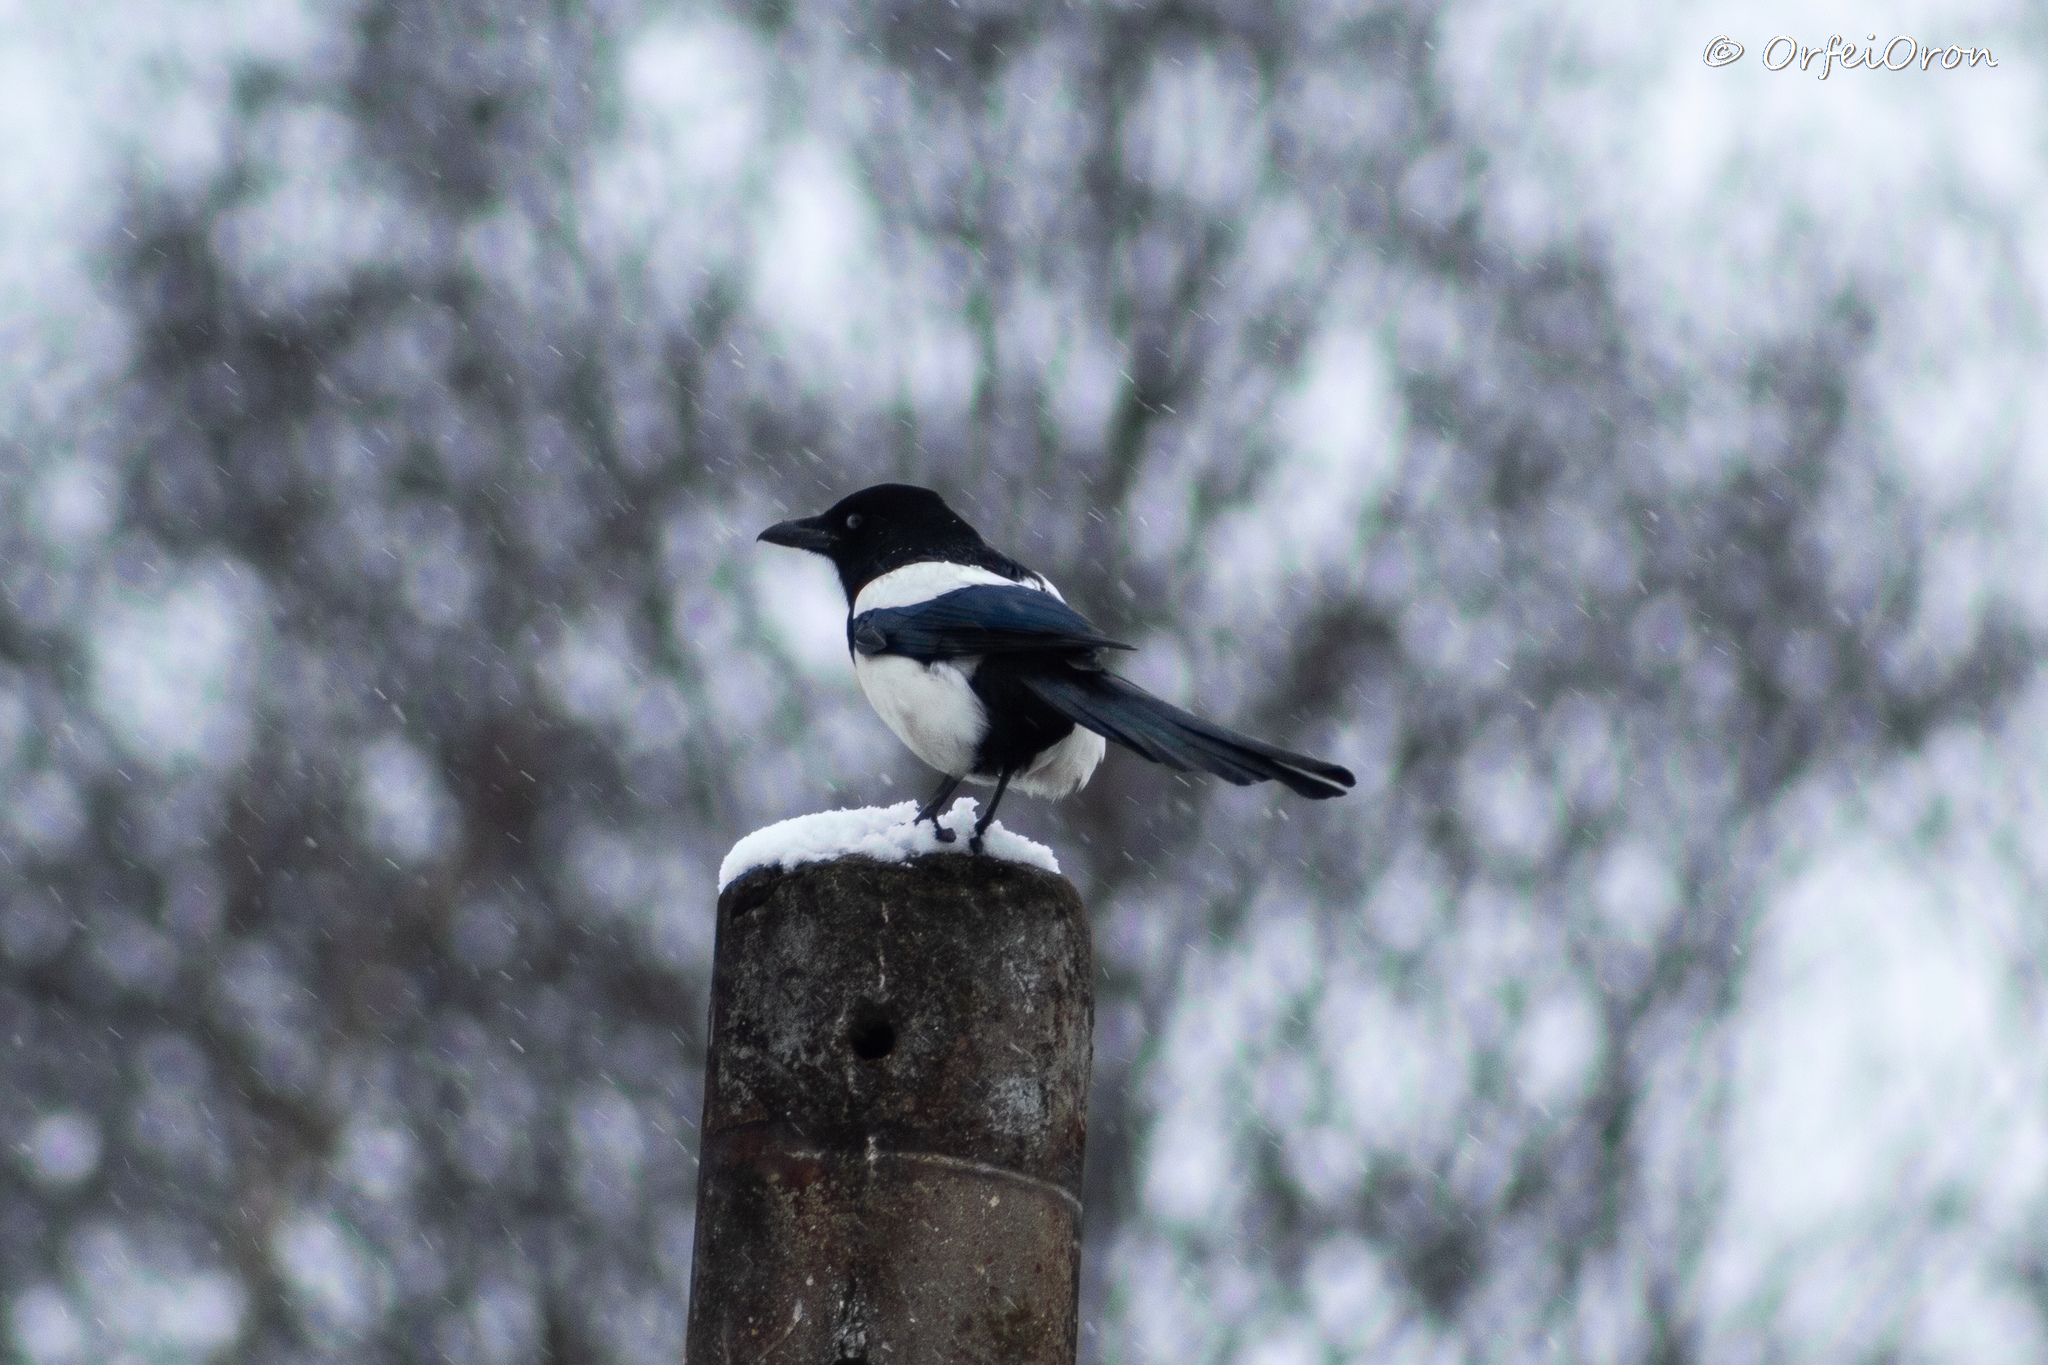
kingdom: Animalia
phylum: Chordata
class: Aves
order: Passeriformes
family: Corvidae
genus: Pica
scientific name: Pica pica
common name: Eurasian magpie
